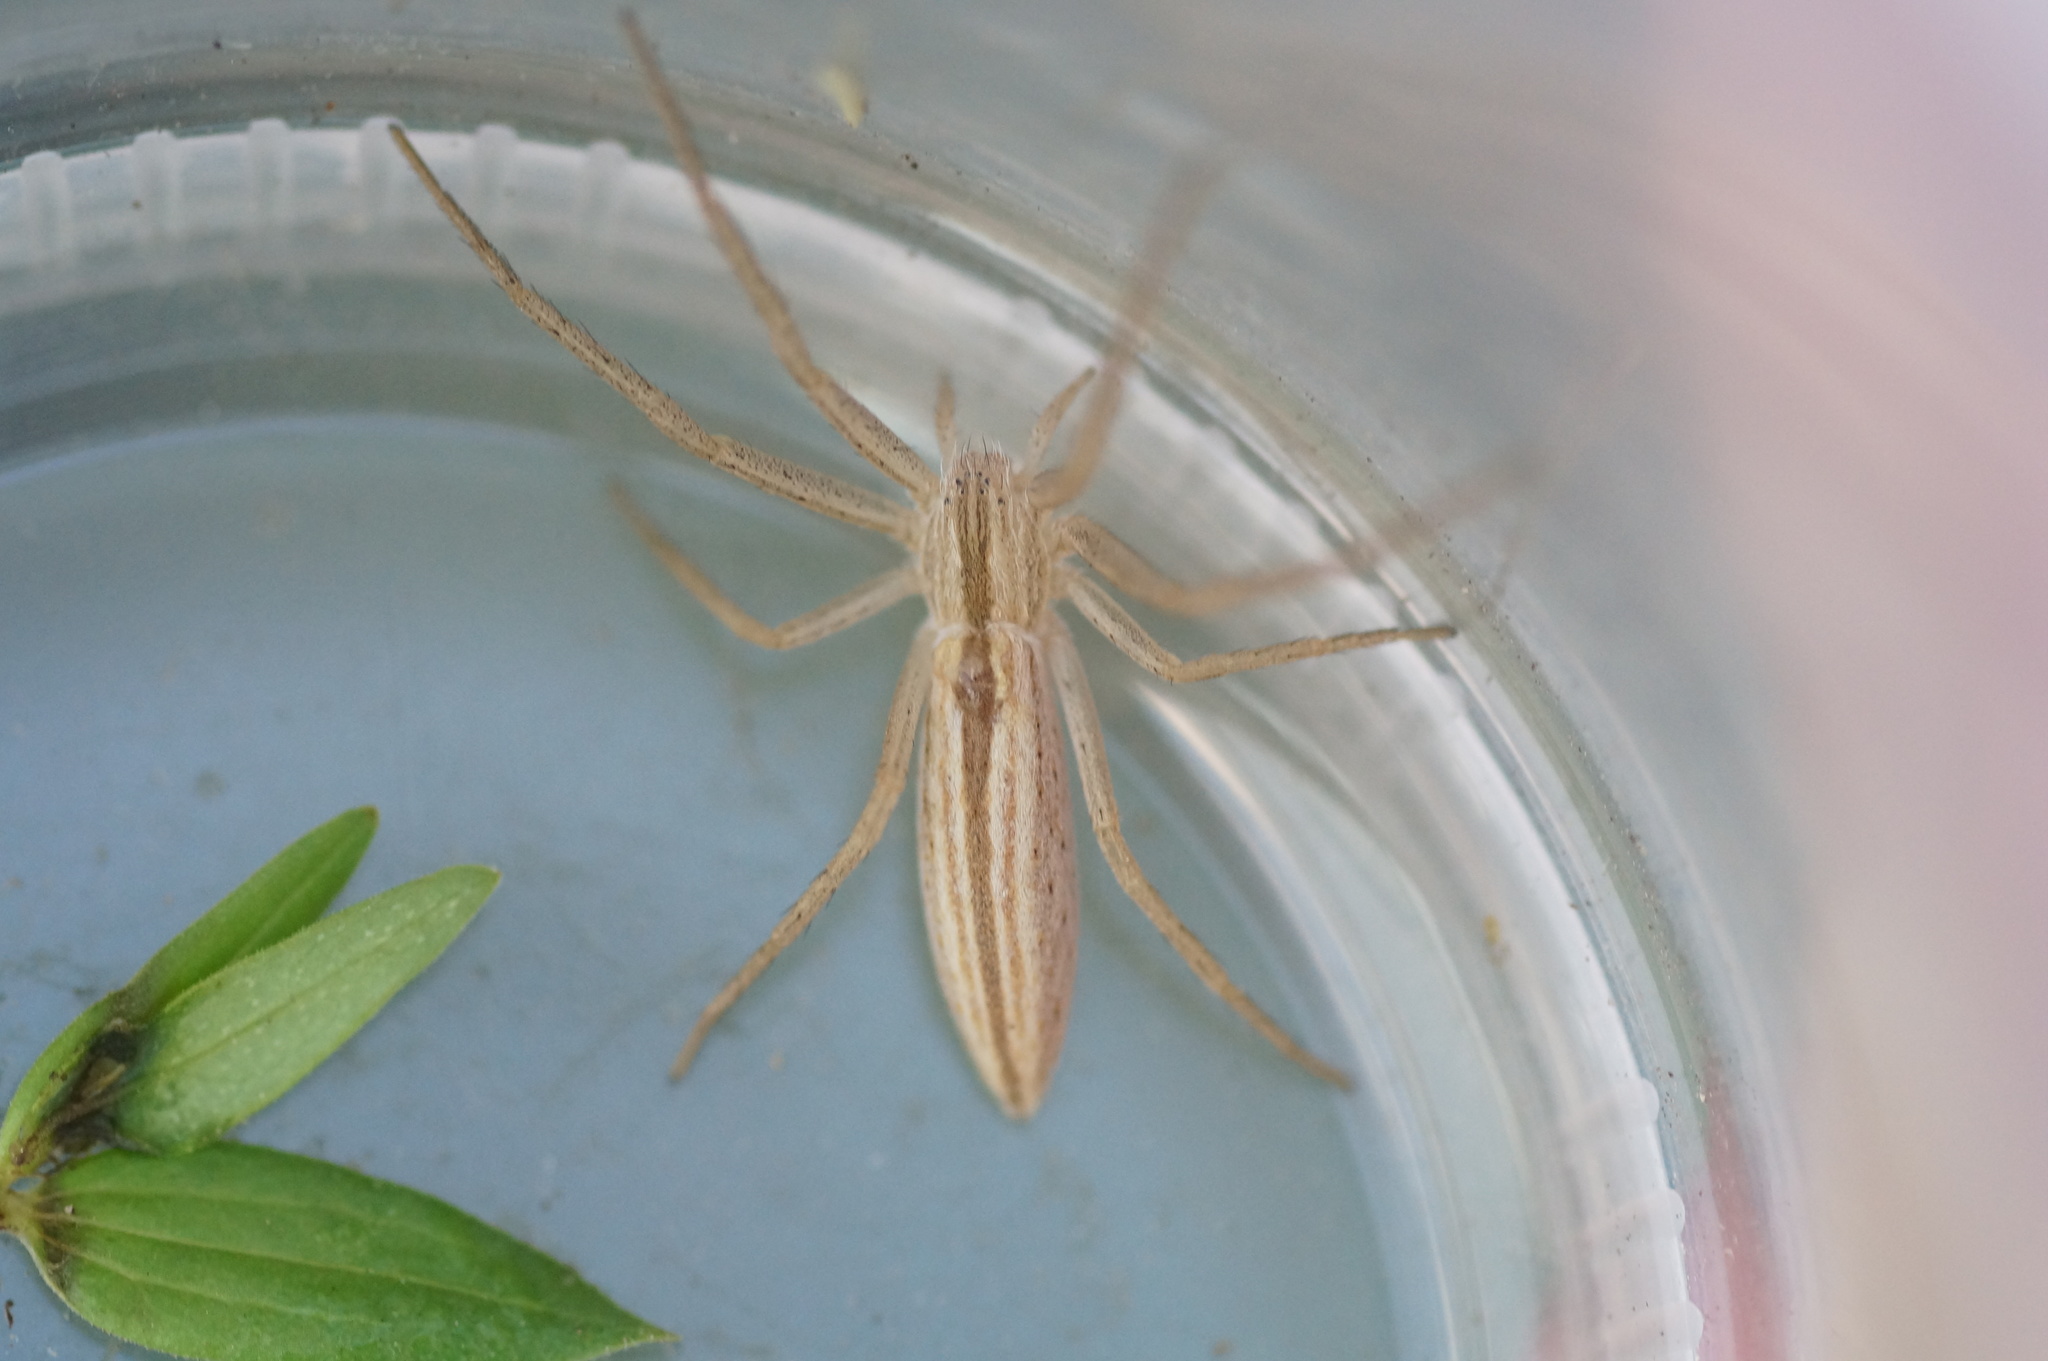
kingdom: Animalia
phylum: Arthropoda
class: Arachnida
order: Araneae
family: Philodromidae
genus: Tibellus
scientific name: Tibellus
